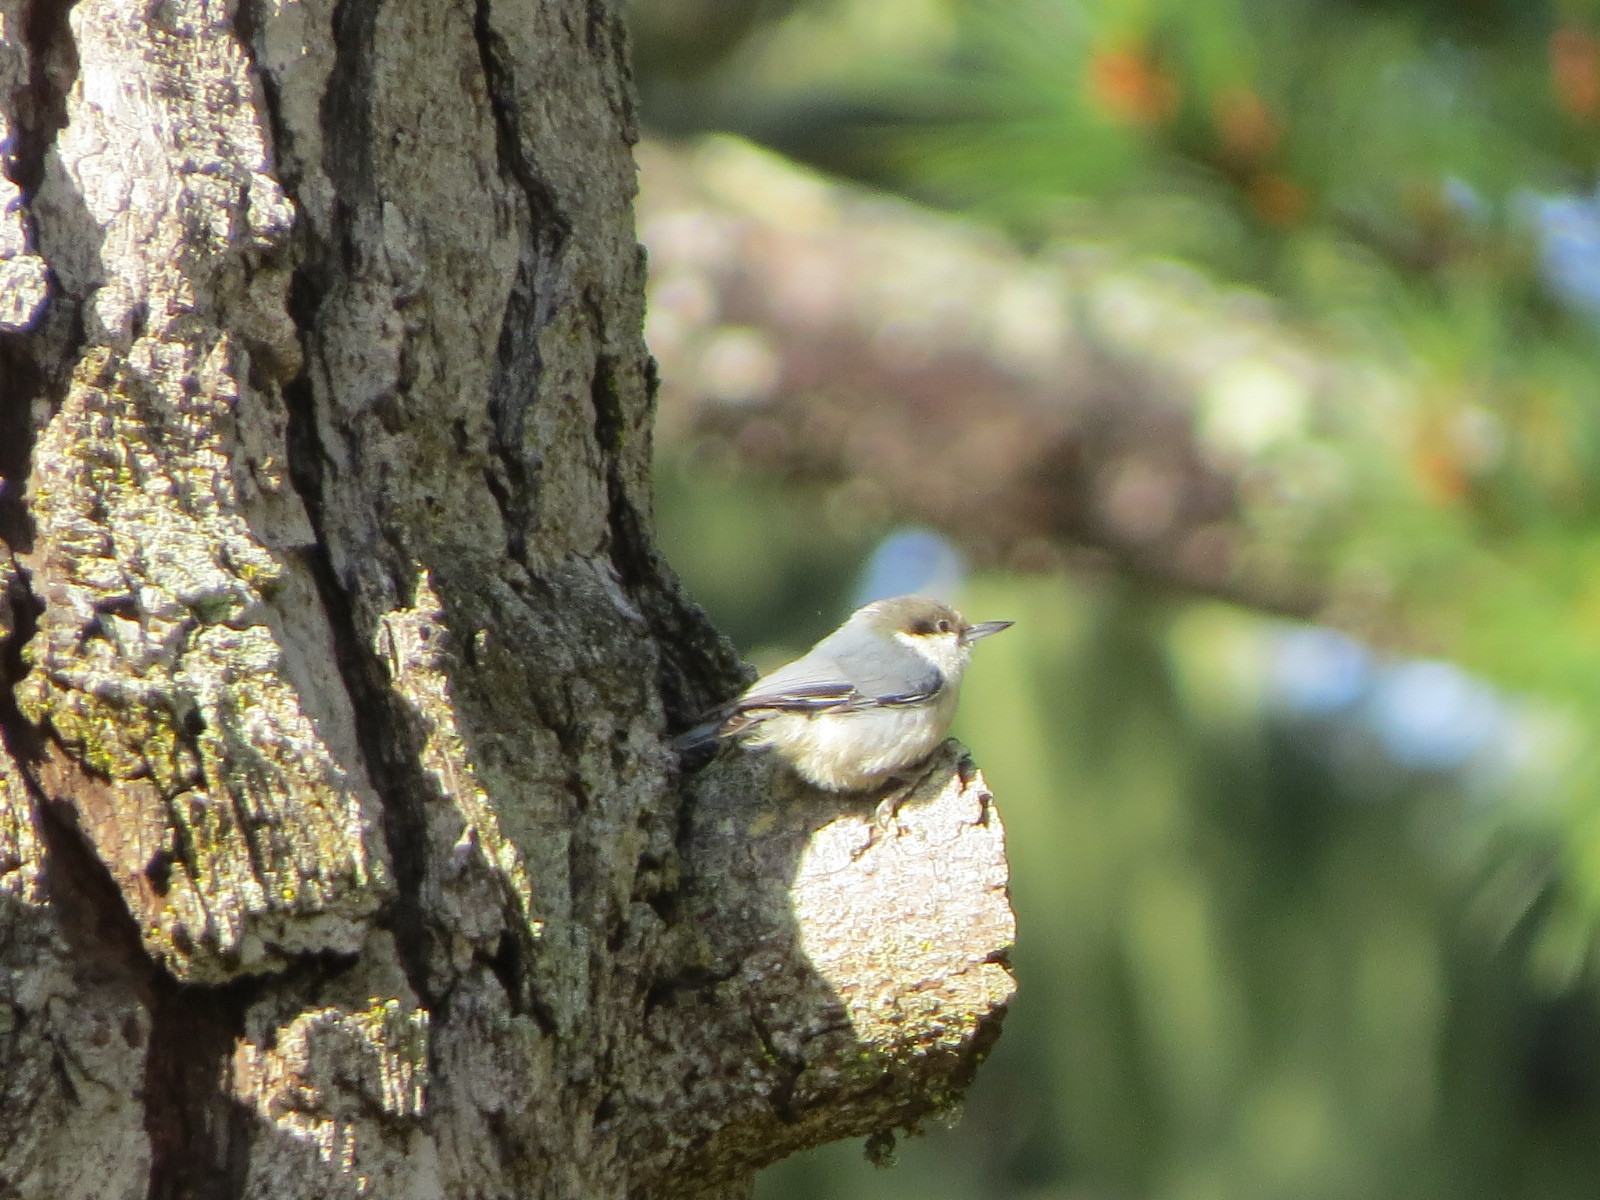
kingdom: Animalia
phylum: Chordata
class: Aves
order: Passeriformes
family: Sittidae
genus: Sitta
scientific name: Sitta pygmaea
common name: Pygmy nuthatch
